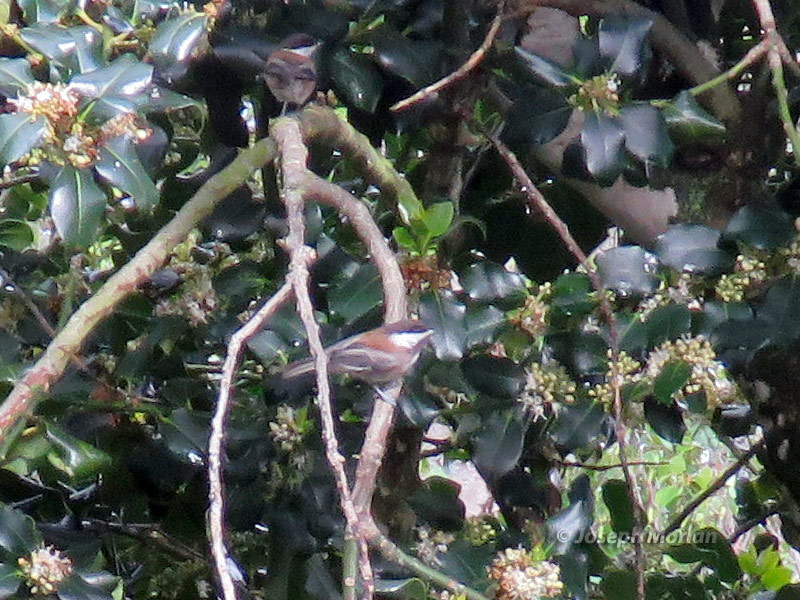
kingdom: Animalia
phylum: Chordata
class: Aves
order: Passeriformes
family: Paridae
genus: Poecile
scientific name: Poecile rufescens
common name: Chestnut-backed chickadee
